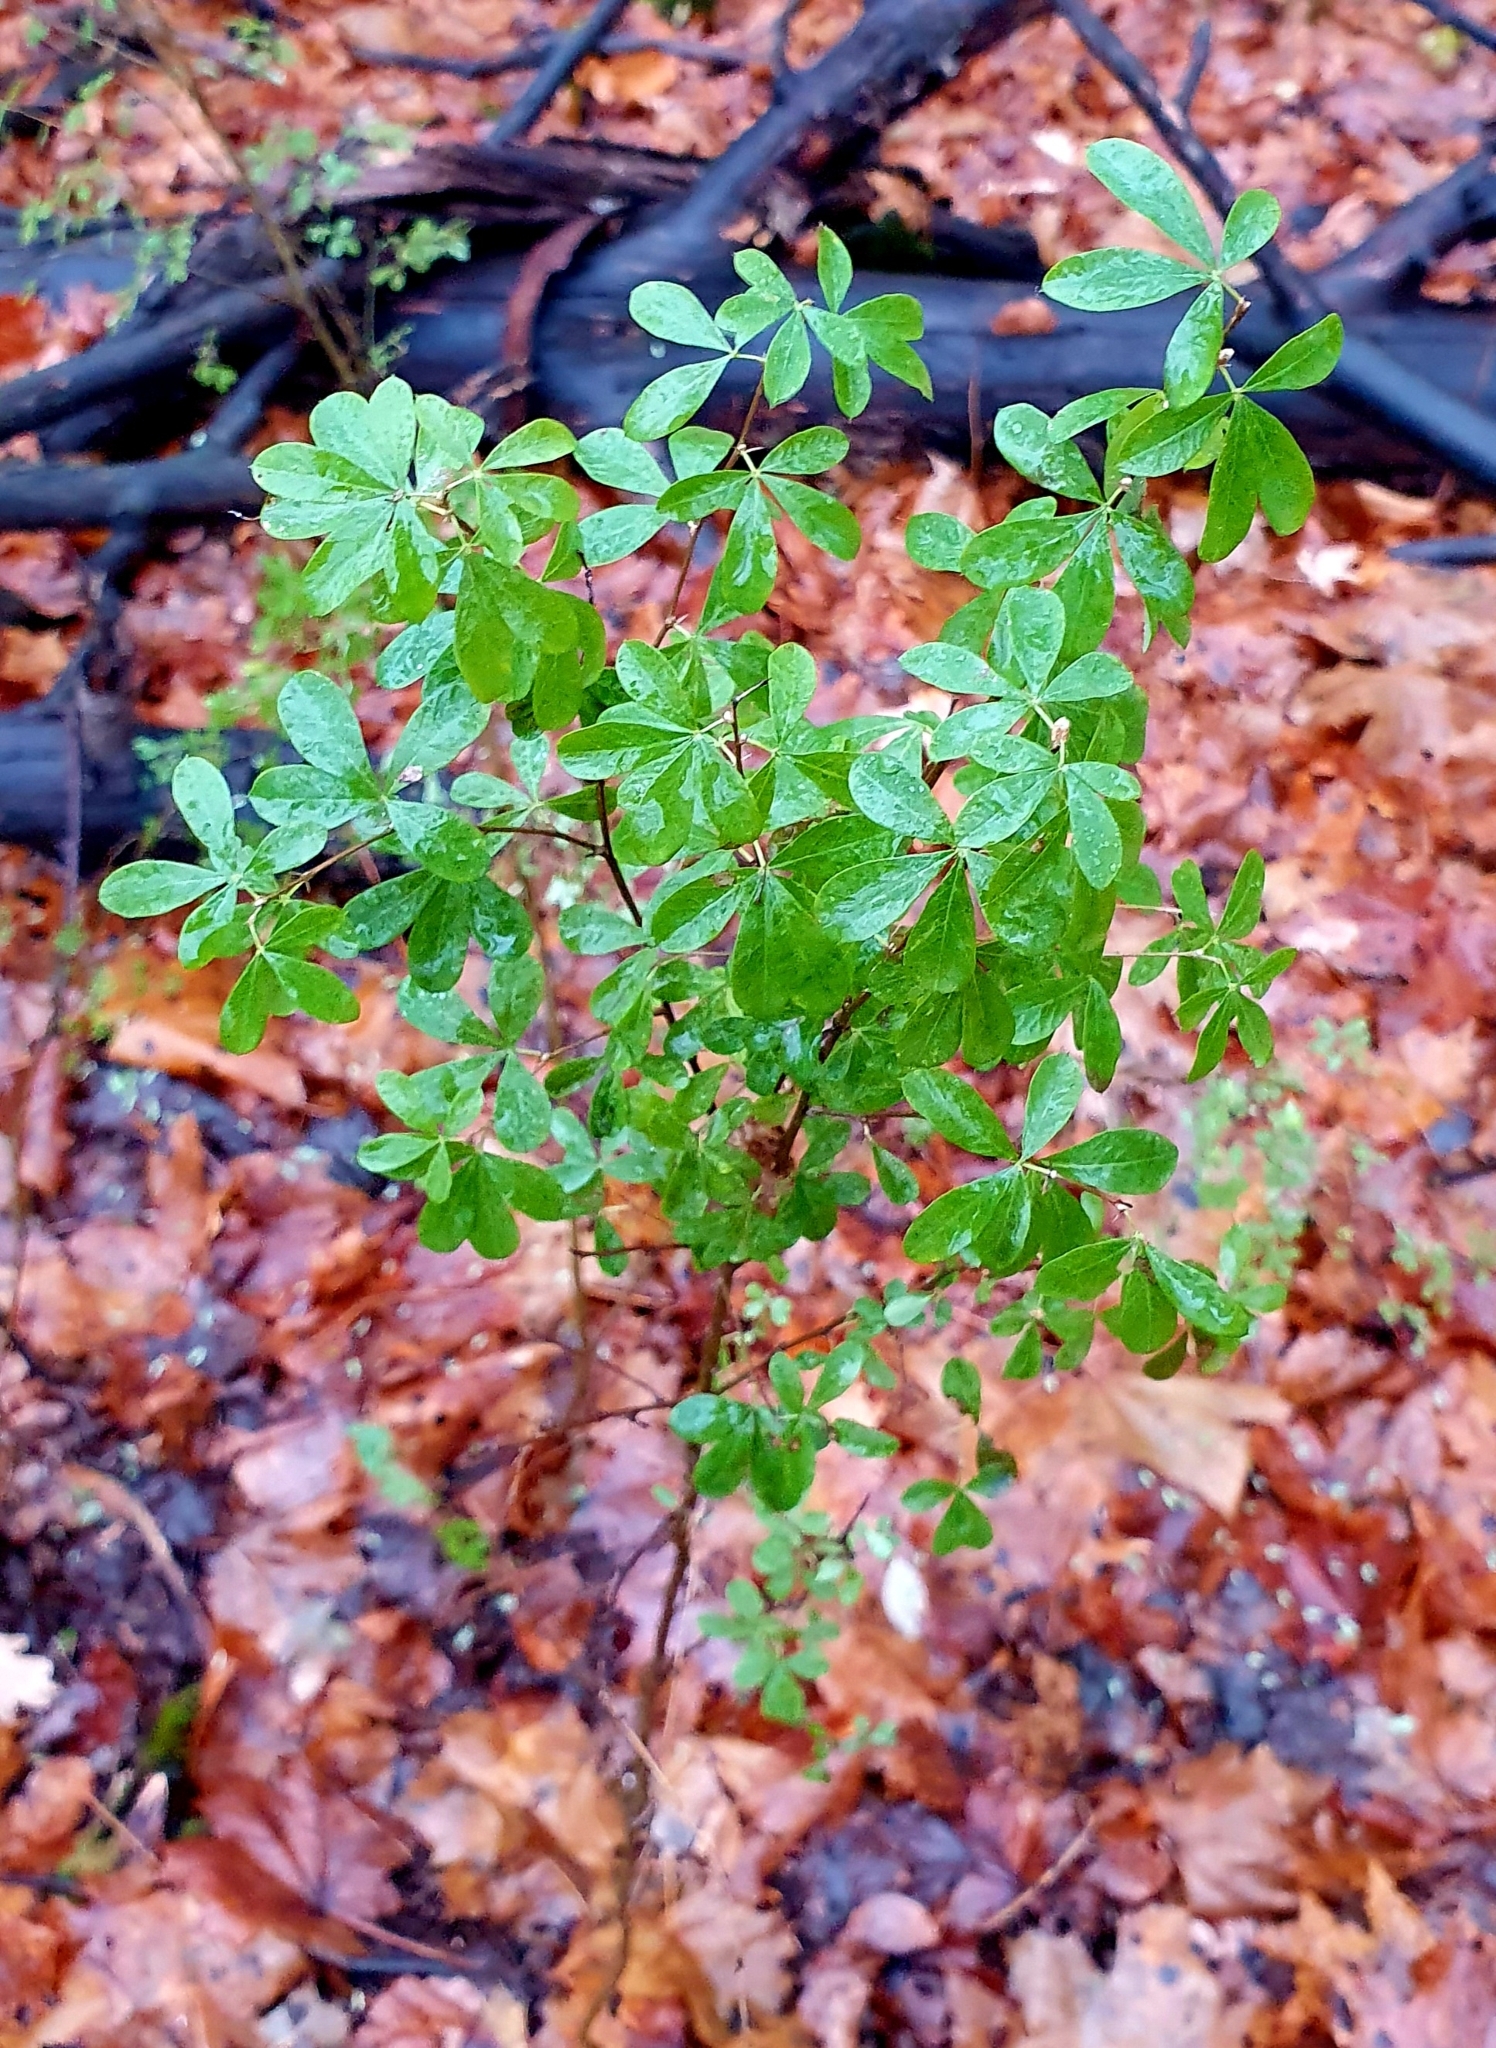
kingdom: Plantae
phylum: Tracheophyta
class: Magnoliopsida
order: Fabales
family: Fabaceae
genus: Caragana
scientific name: Caragana frutex
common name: Russian peashrub
